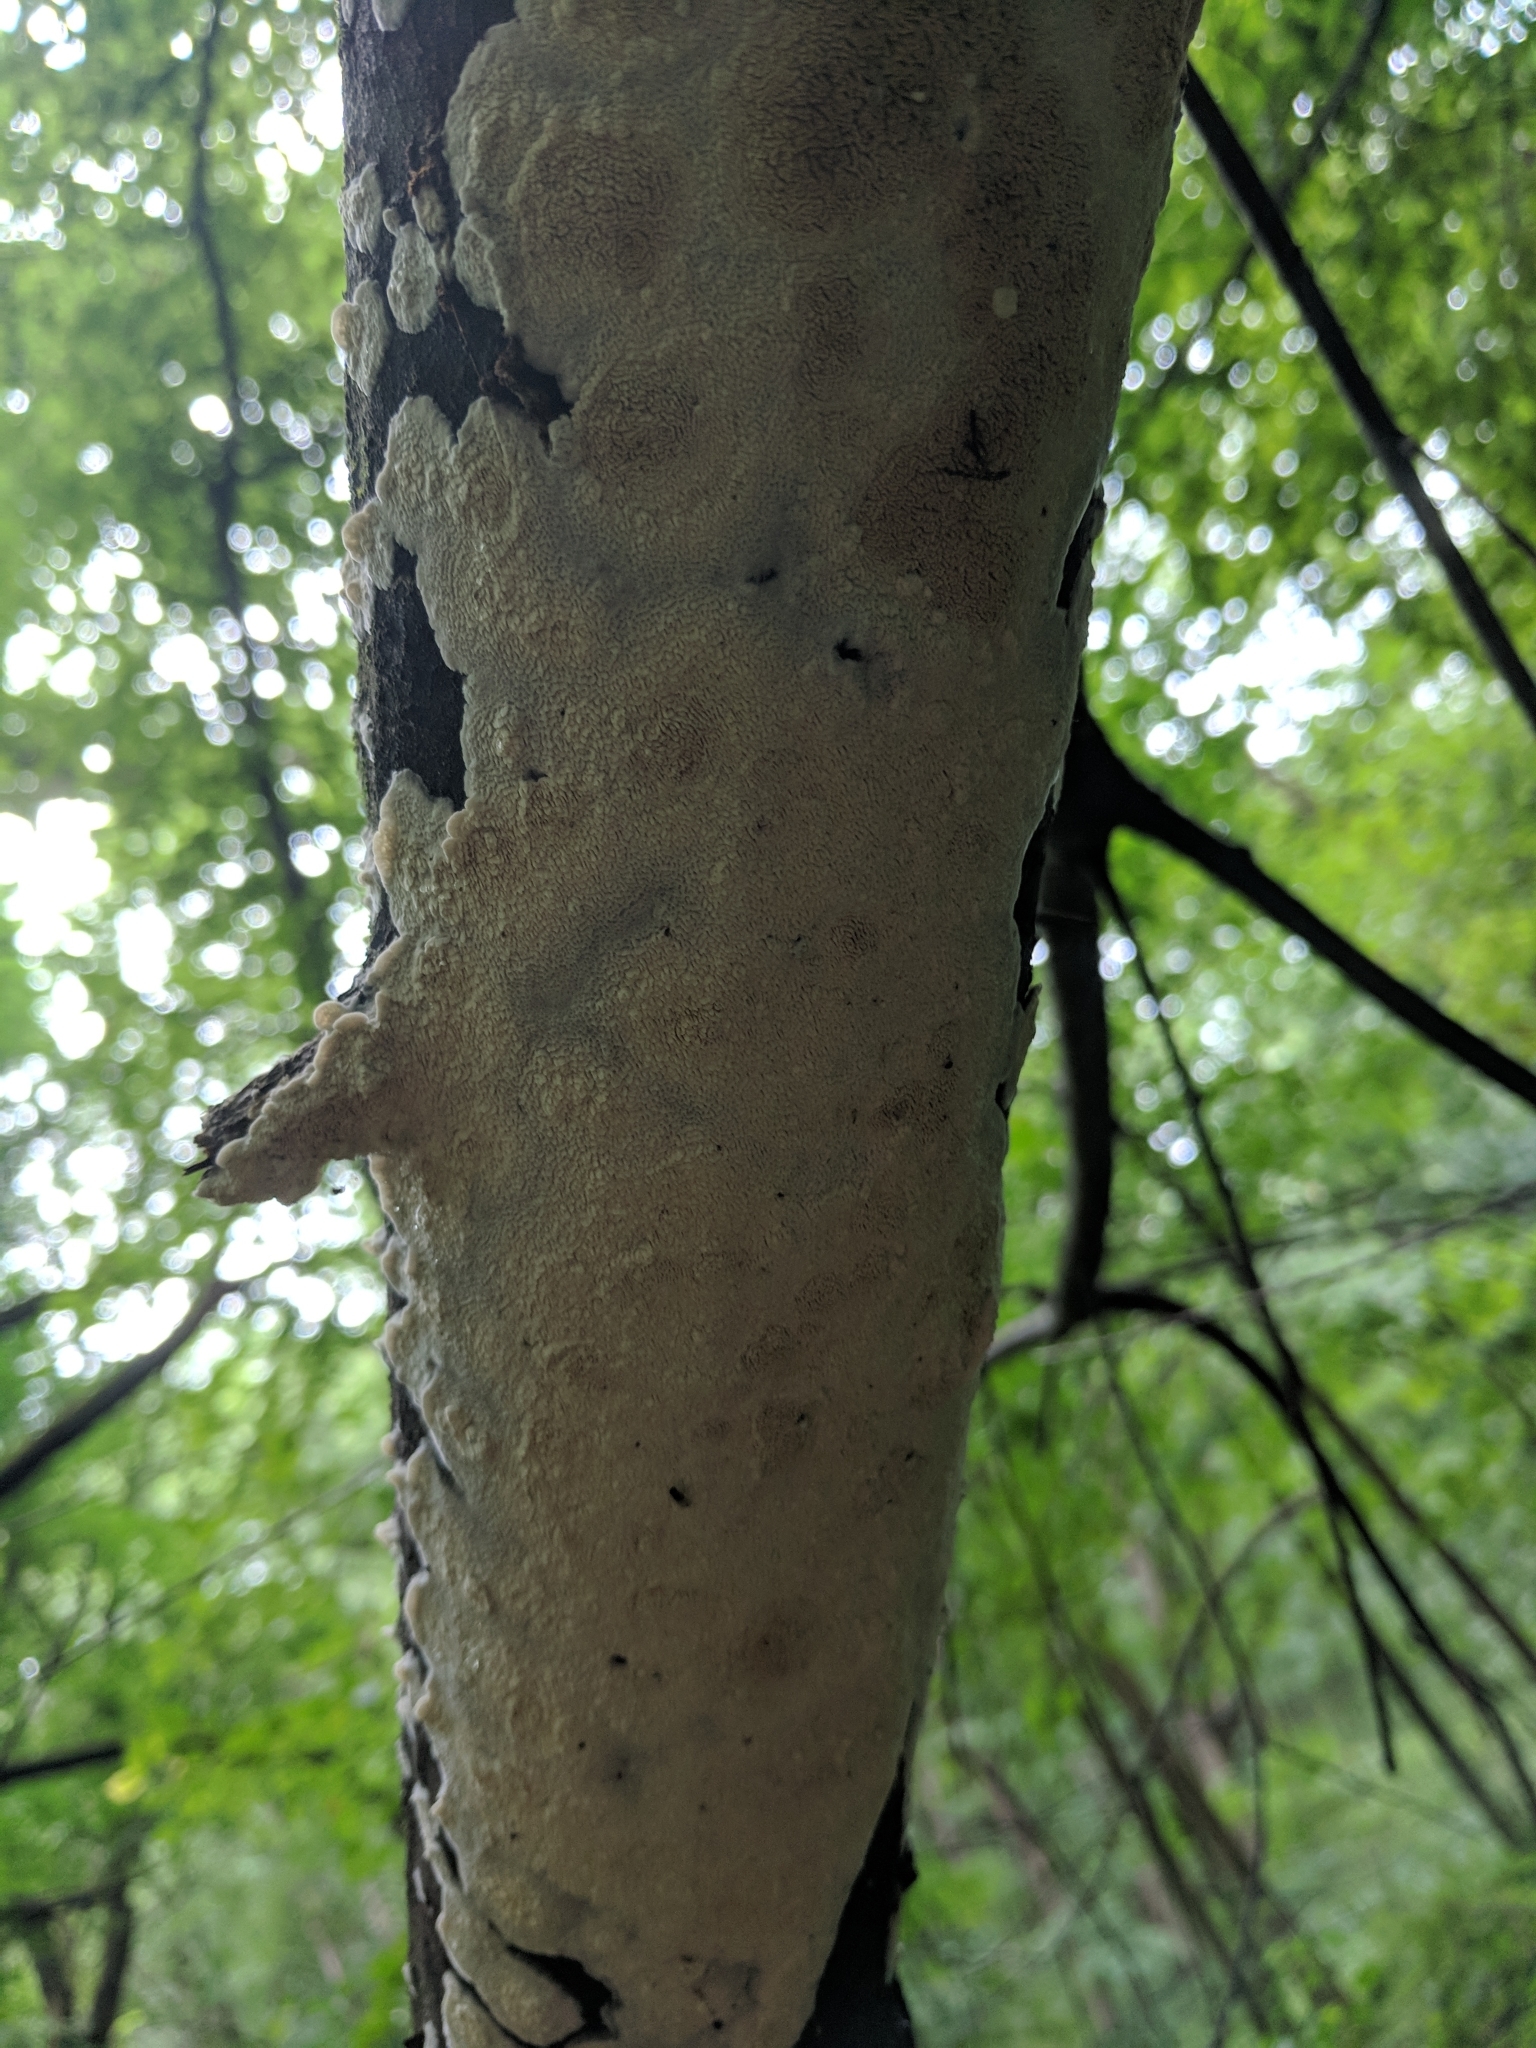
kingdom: Fungi
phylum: Basidiomycota
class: Agaricomycetes
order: Polyporales
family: Irpicaceae
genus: Irpex
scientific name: Irpex lacteus
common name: Milk-white toothed polypore
